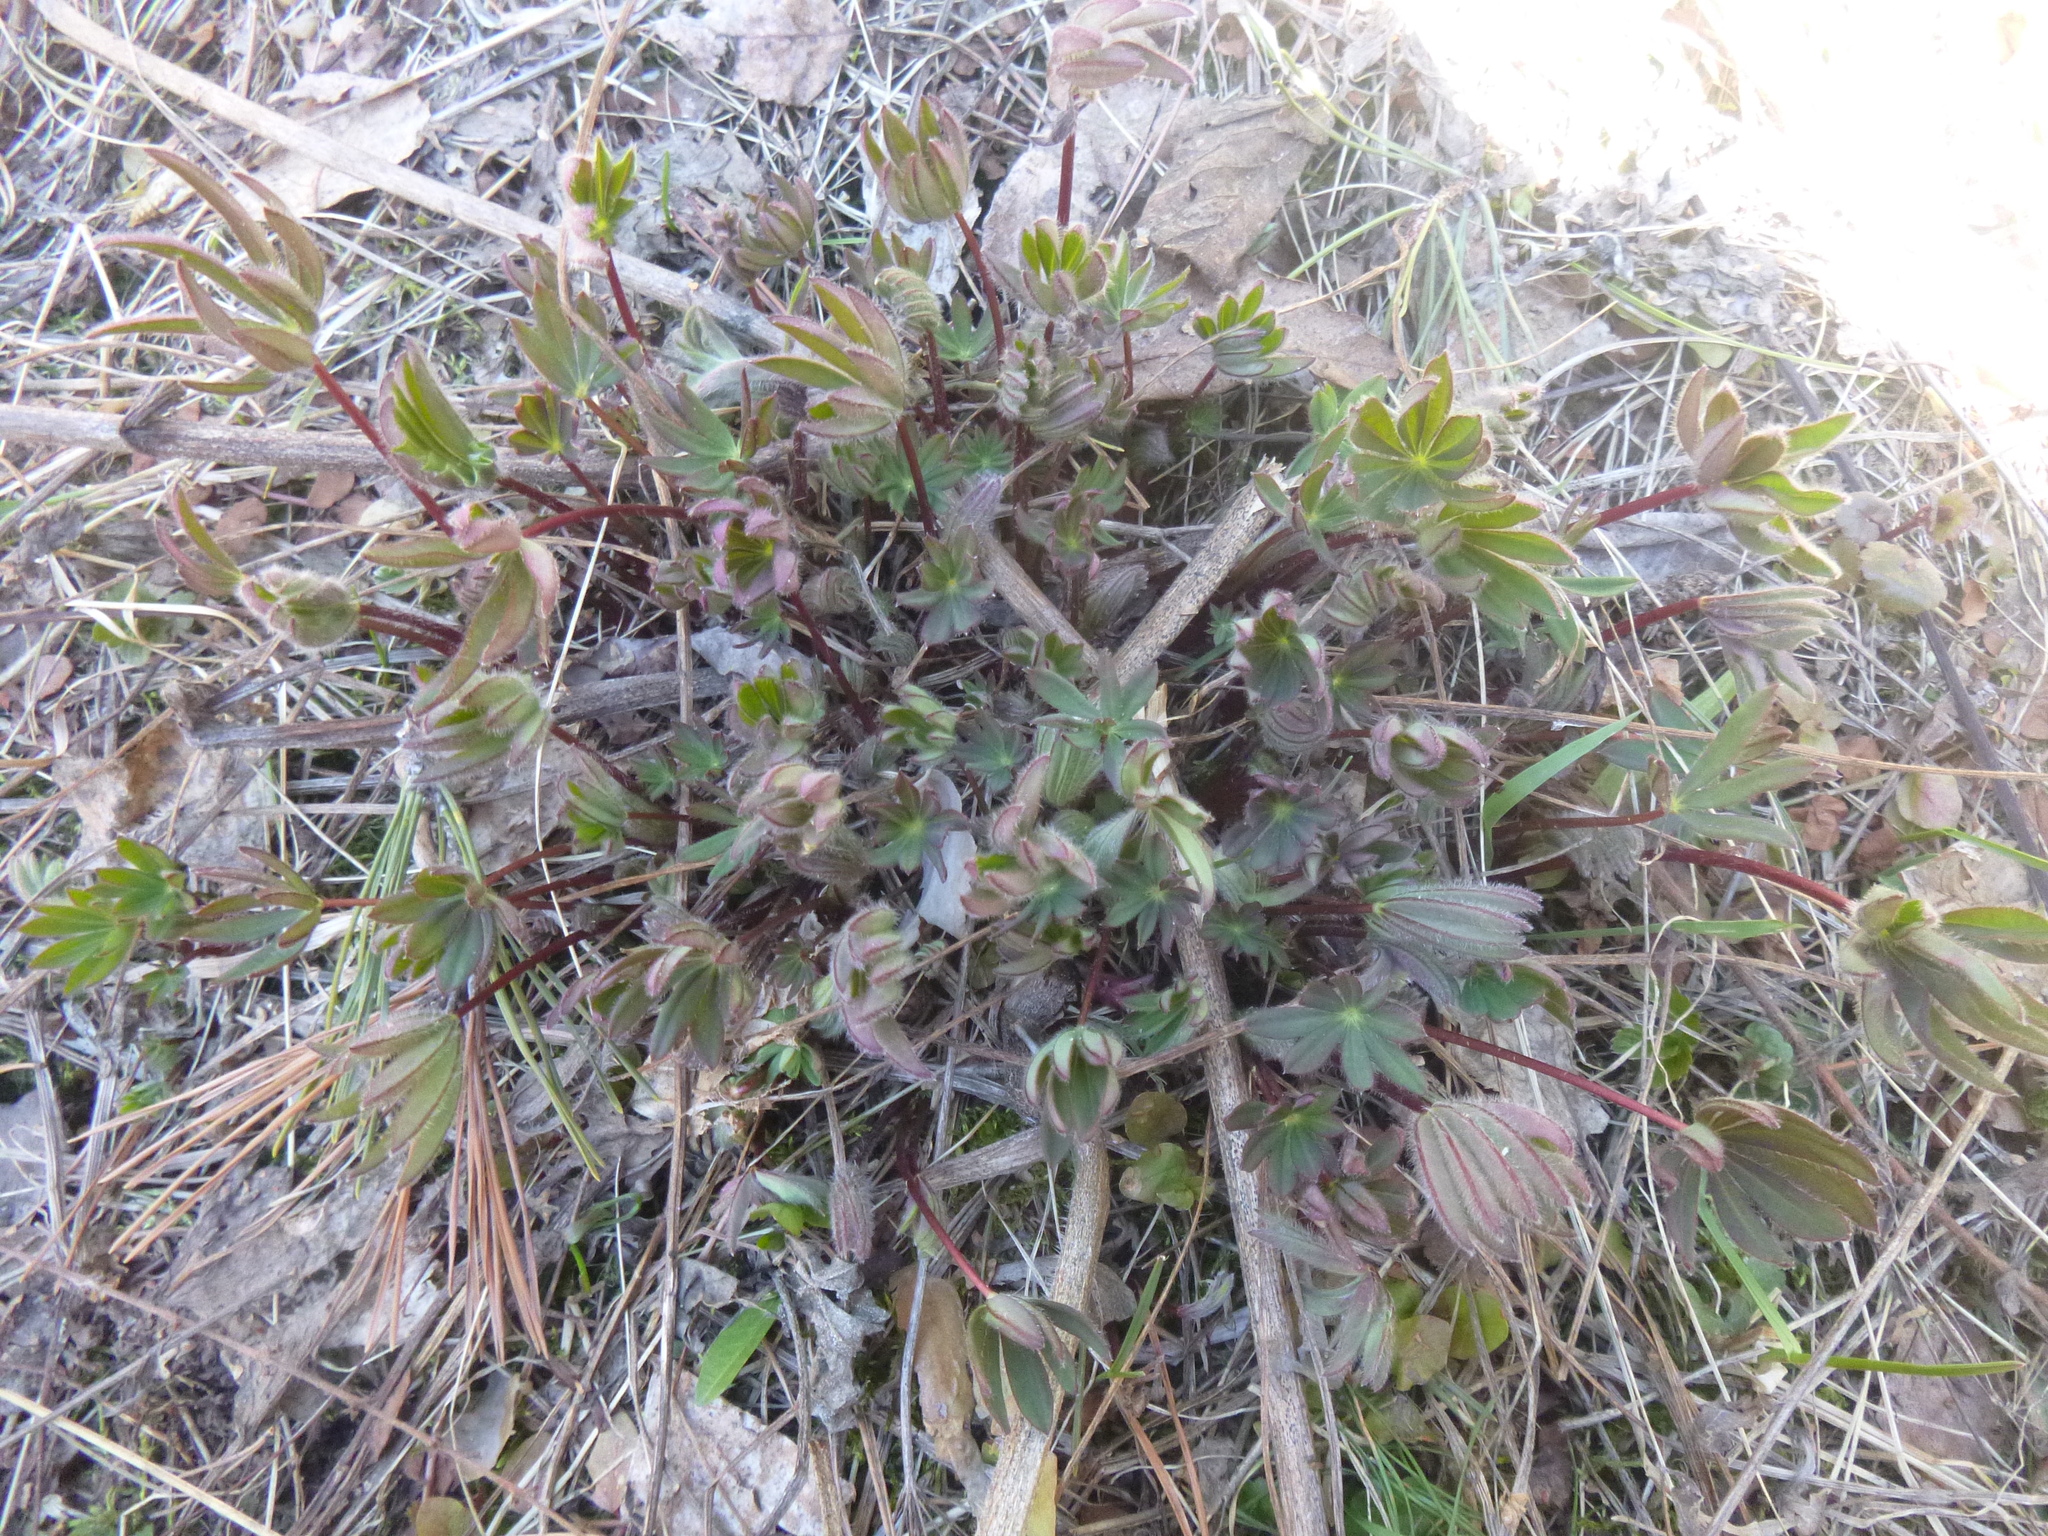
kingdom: Plantae
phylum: Tracheophyta
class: Magnoliopsida
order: Fabales
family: Fabaceae
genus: Lupinus
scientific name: Lupinus polyphyllus
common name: Garden lupin
